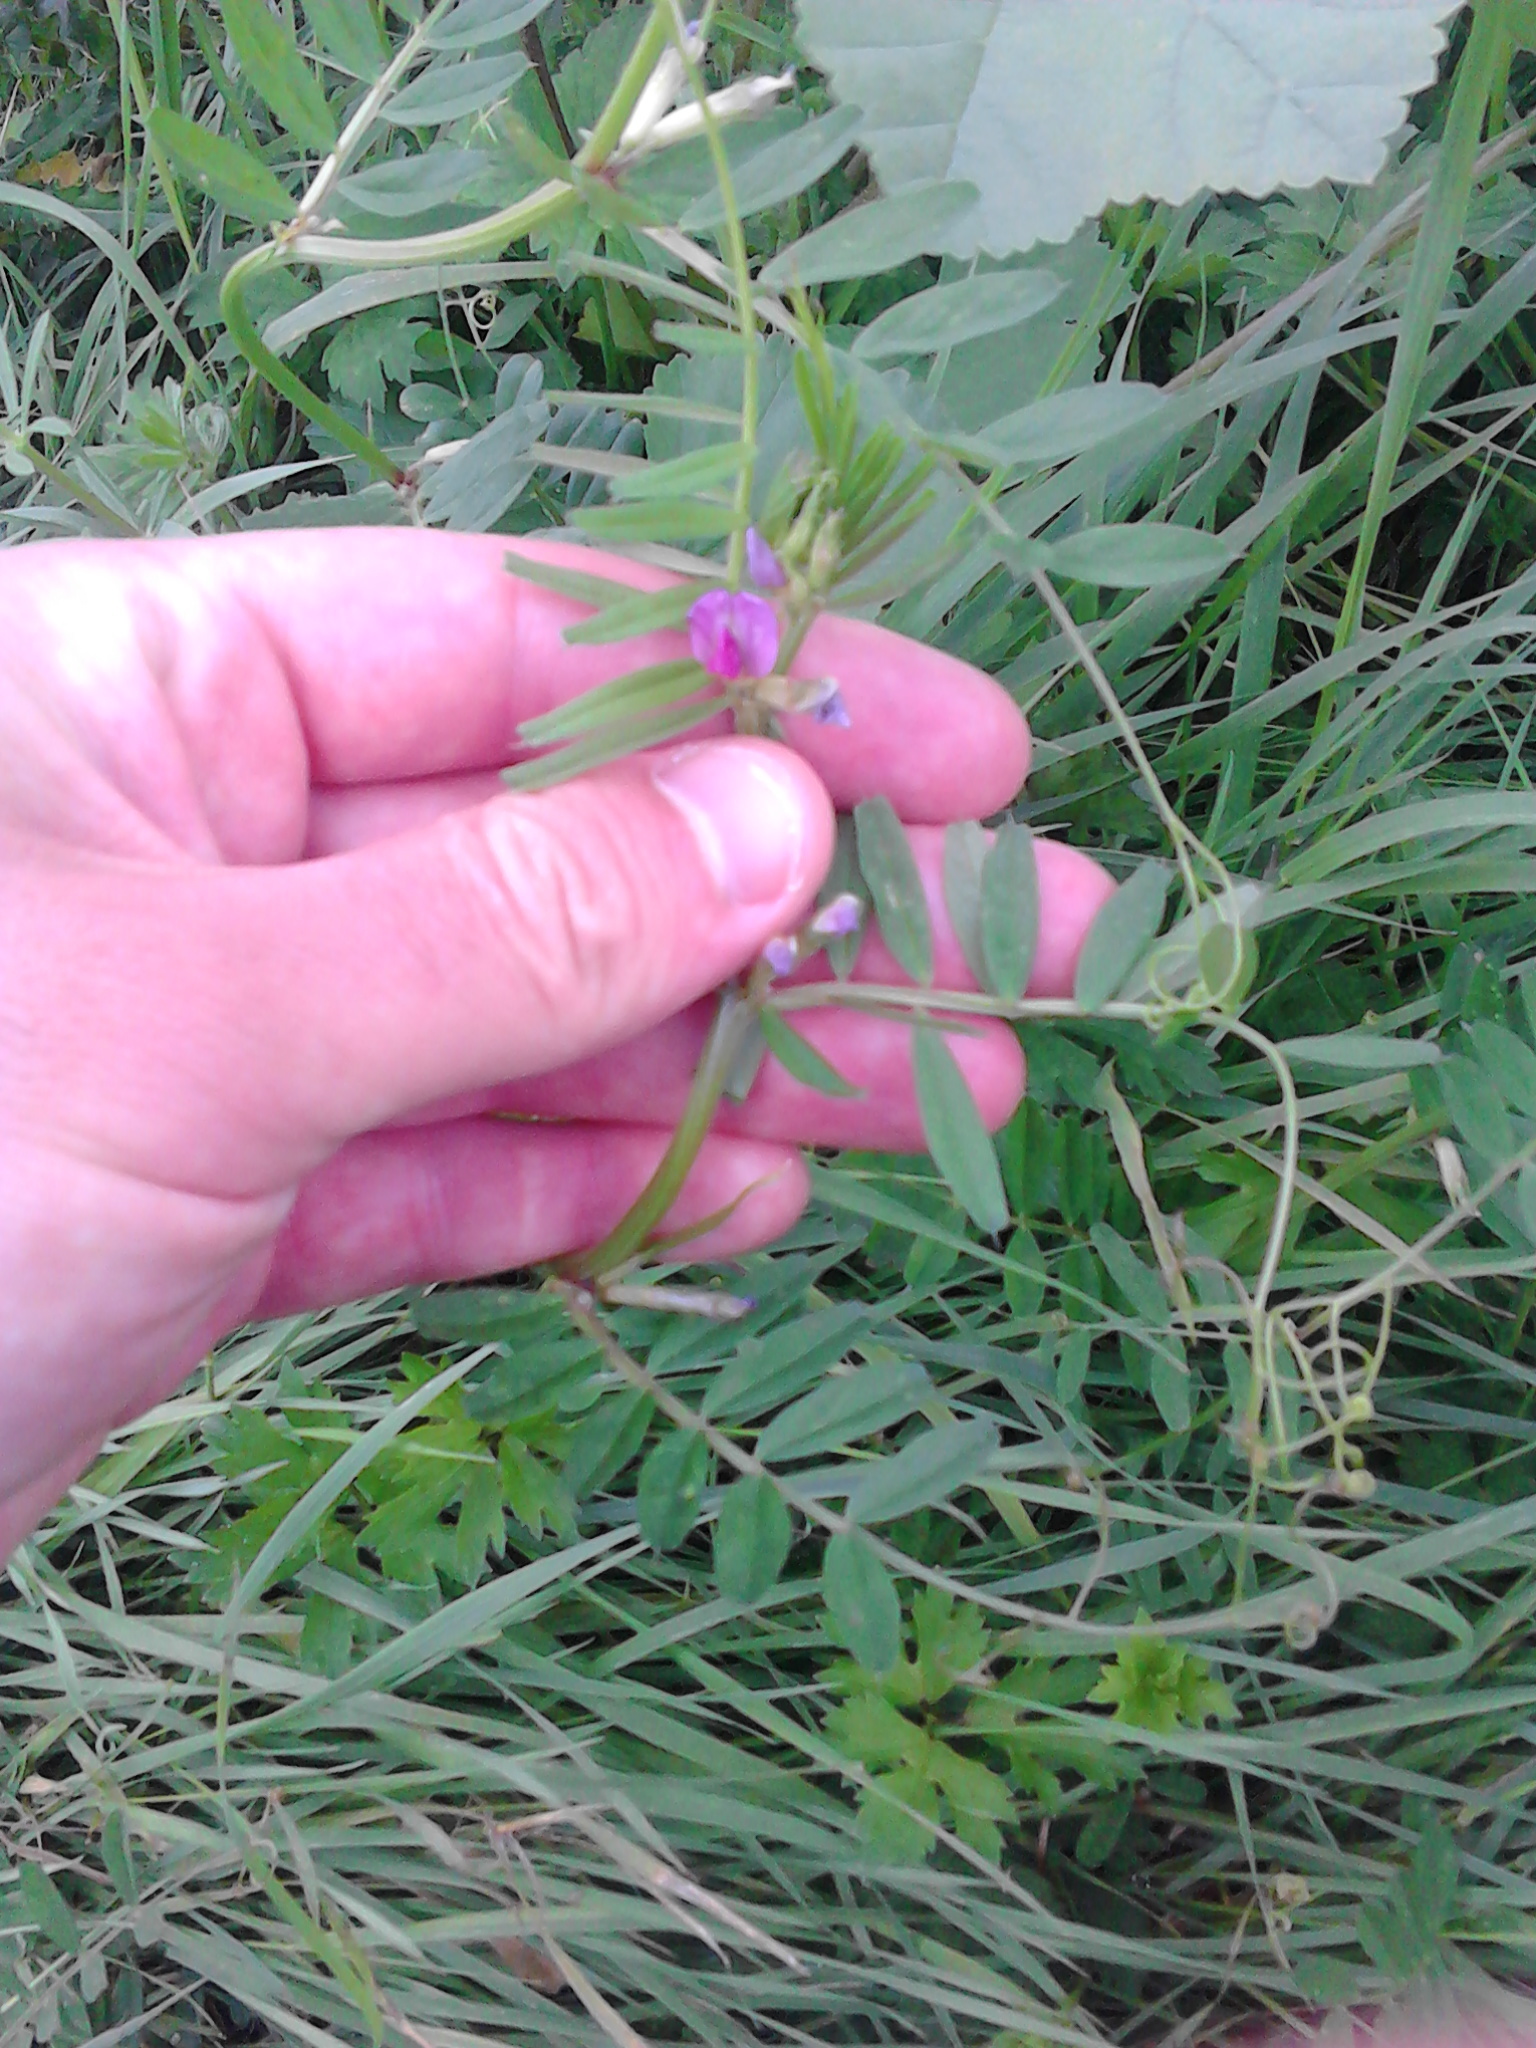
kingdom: Plantae
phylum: Tracheophyta
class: Magnoliopsida
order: Fabales
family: Fabaceae
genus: Vicia
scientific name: Vicia sativa
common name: Garden vetch
